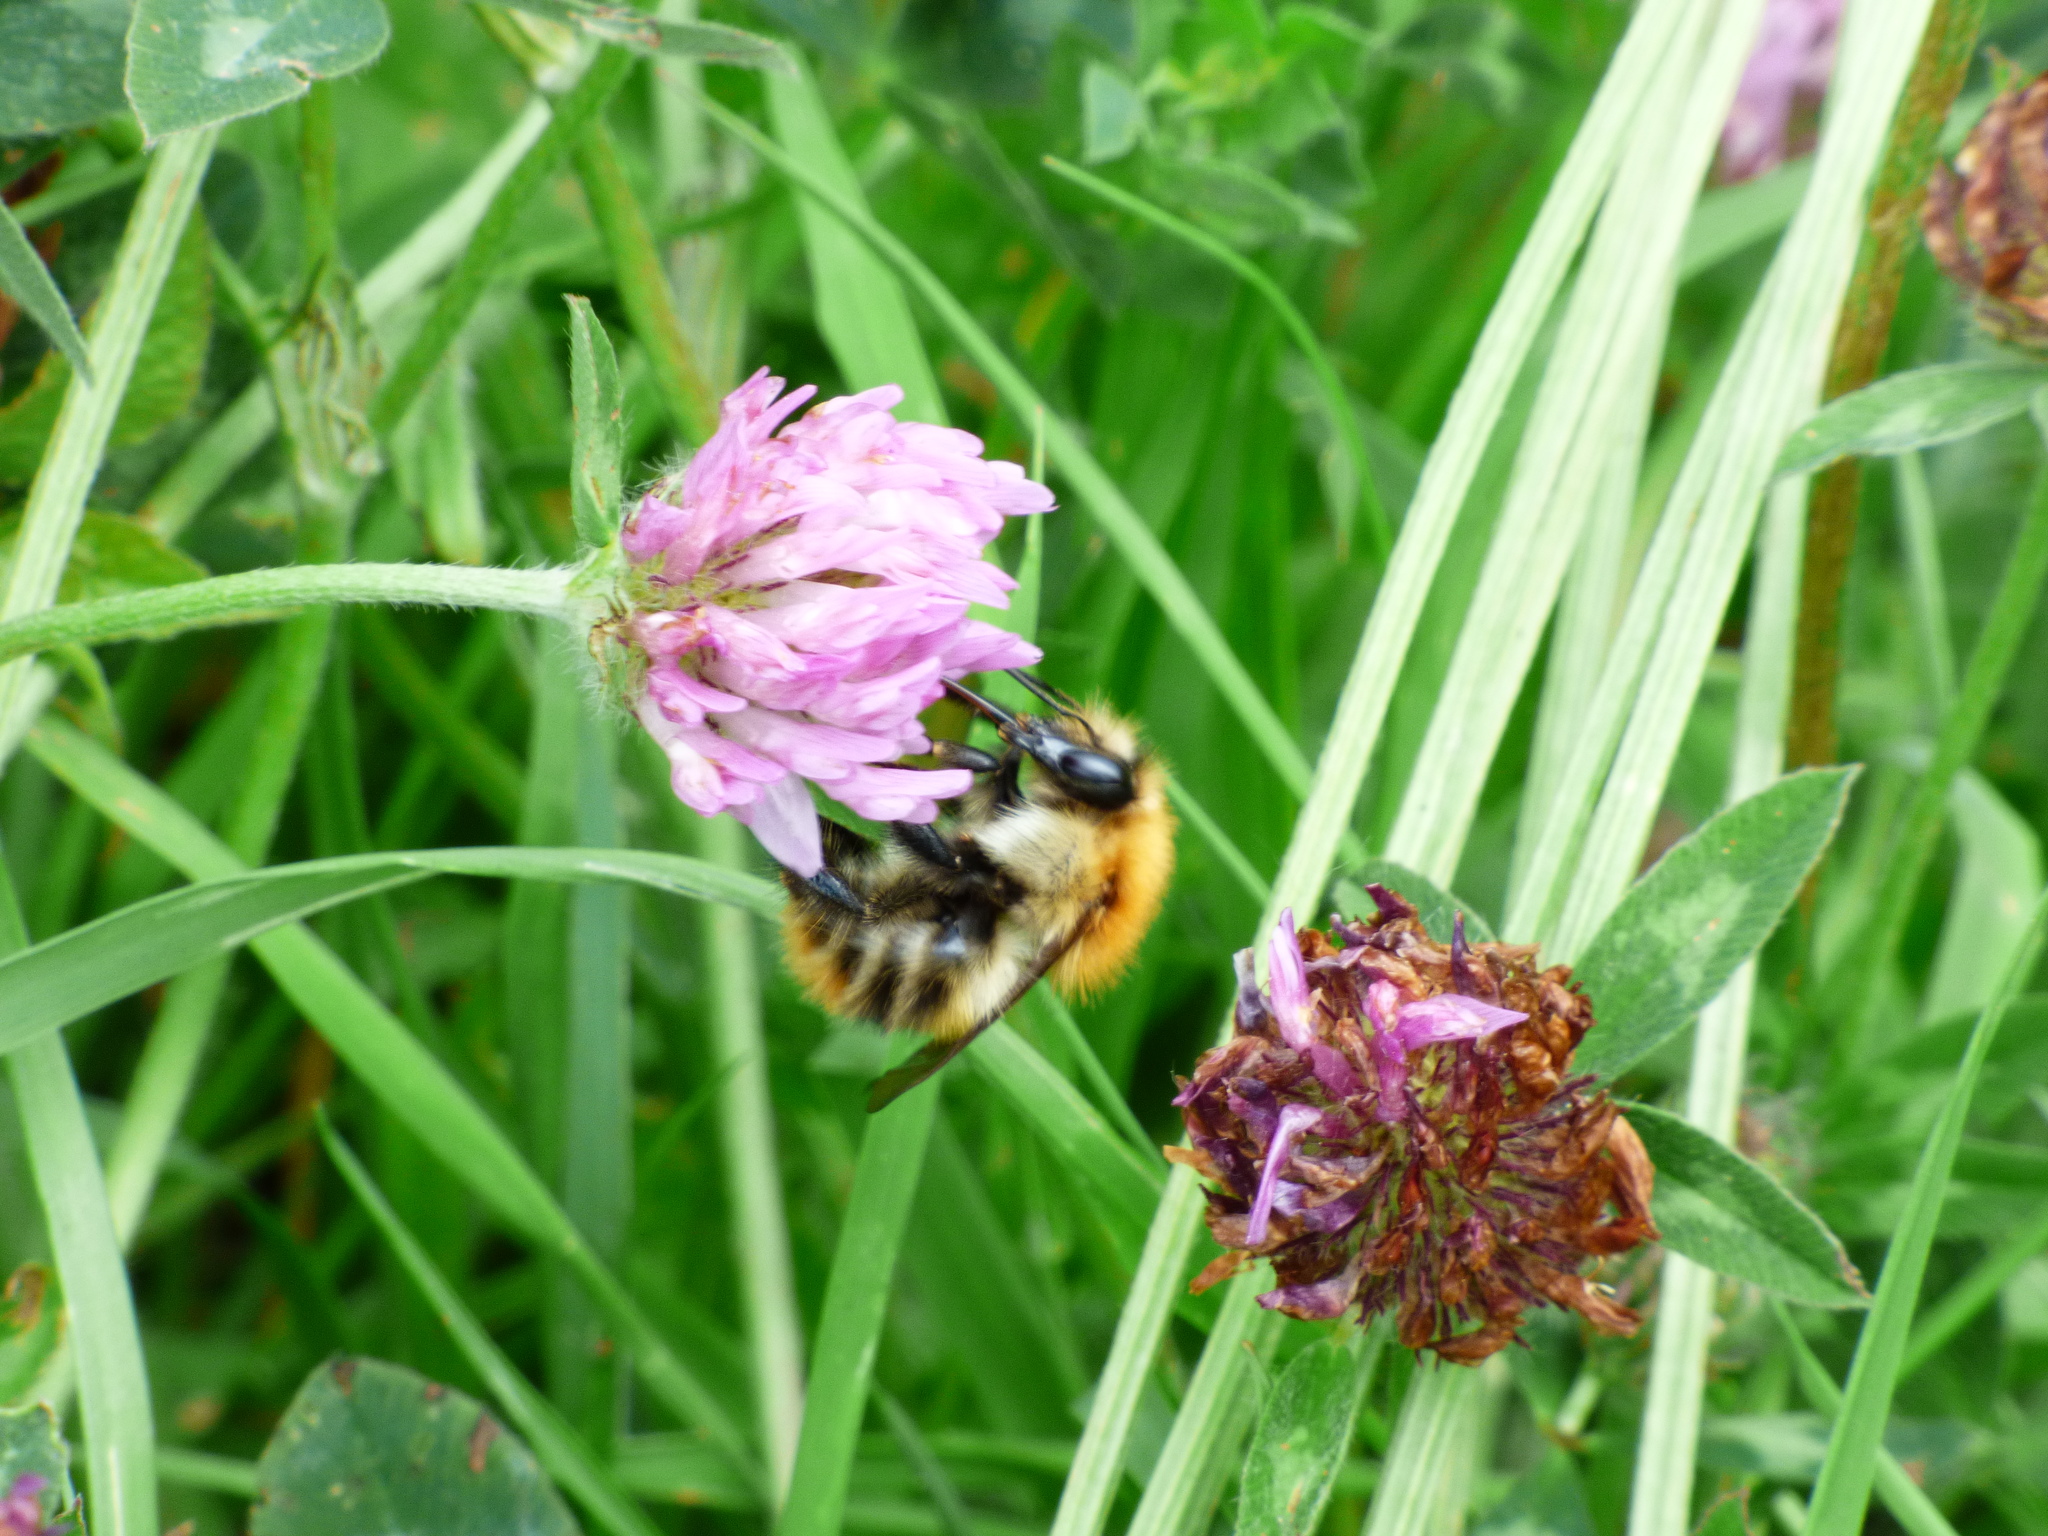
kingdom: Animalia
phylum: Arthropoda
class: Insecta
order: Hymenoptera
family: Apidae
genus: Bombus
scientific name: Bombus pascuorum
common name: Common carder bee
